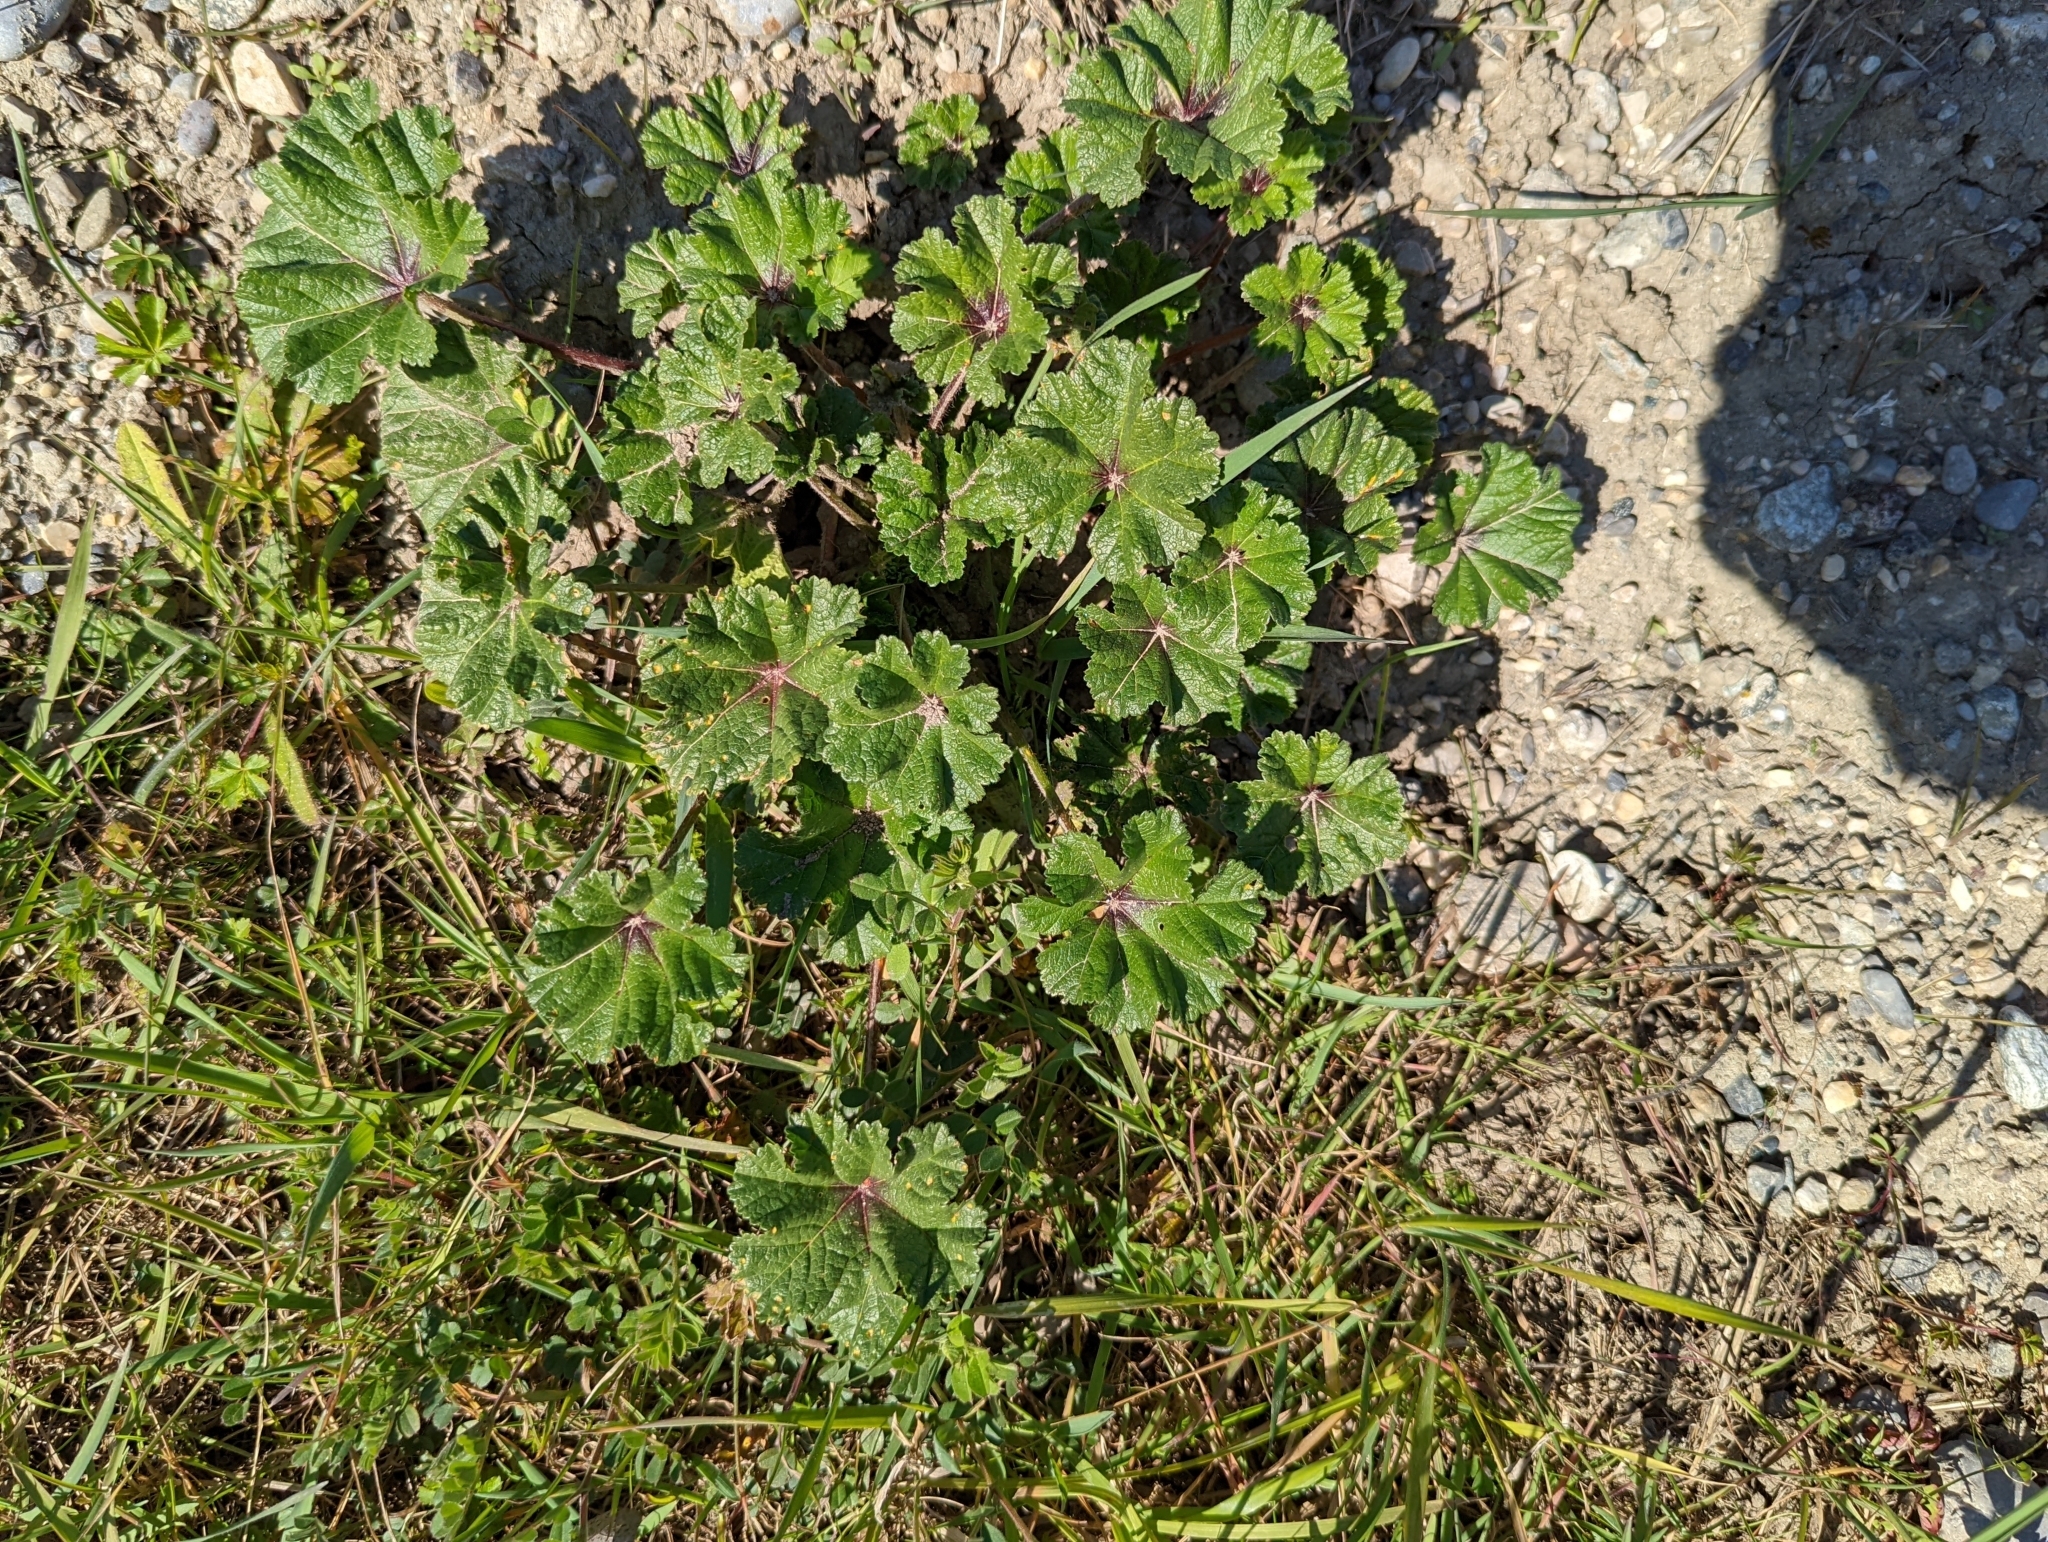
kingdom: Plantae
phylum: Tracheophyta
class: Magnoliopsida
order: Malvales
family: Malvaceae
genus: Malva
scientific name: Malva sylvestris
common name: Common mallow
